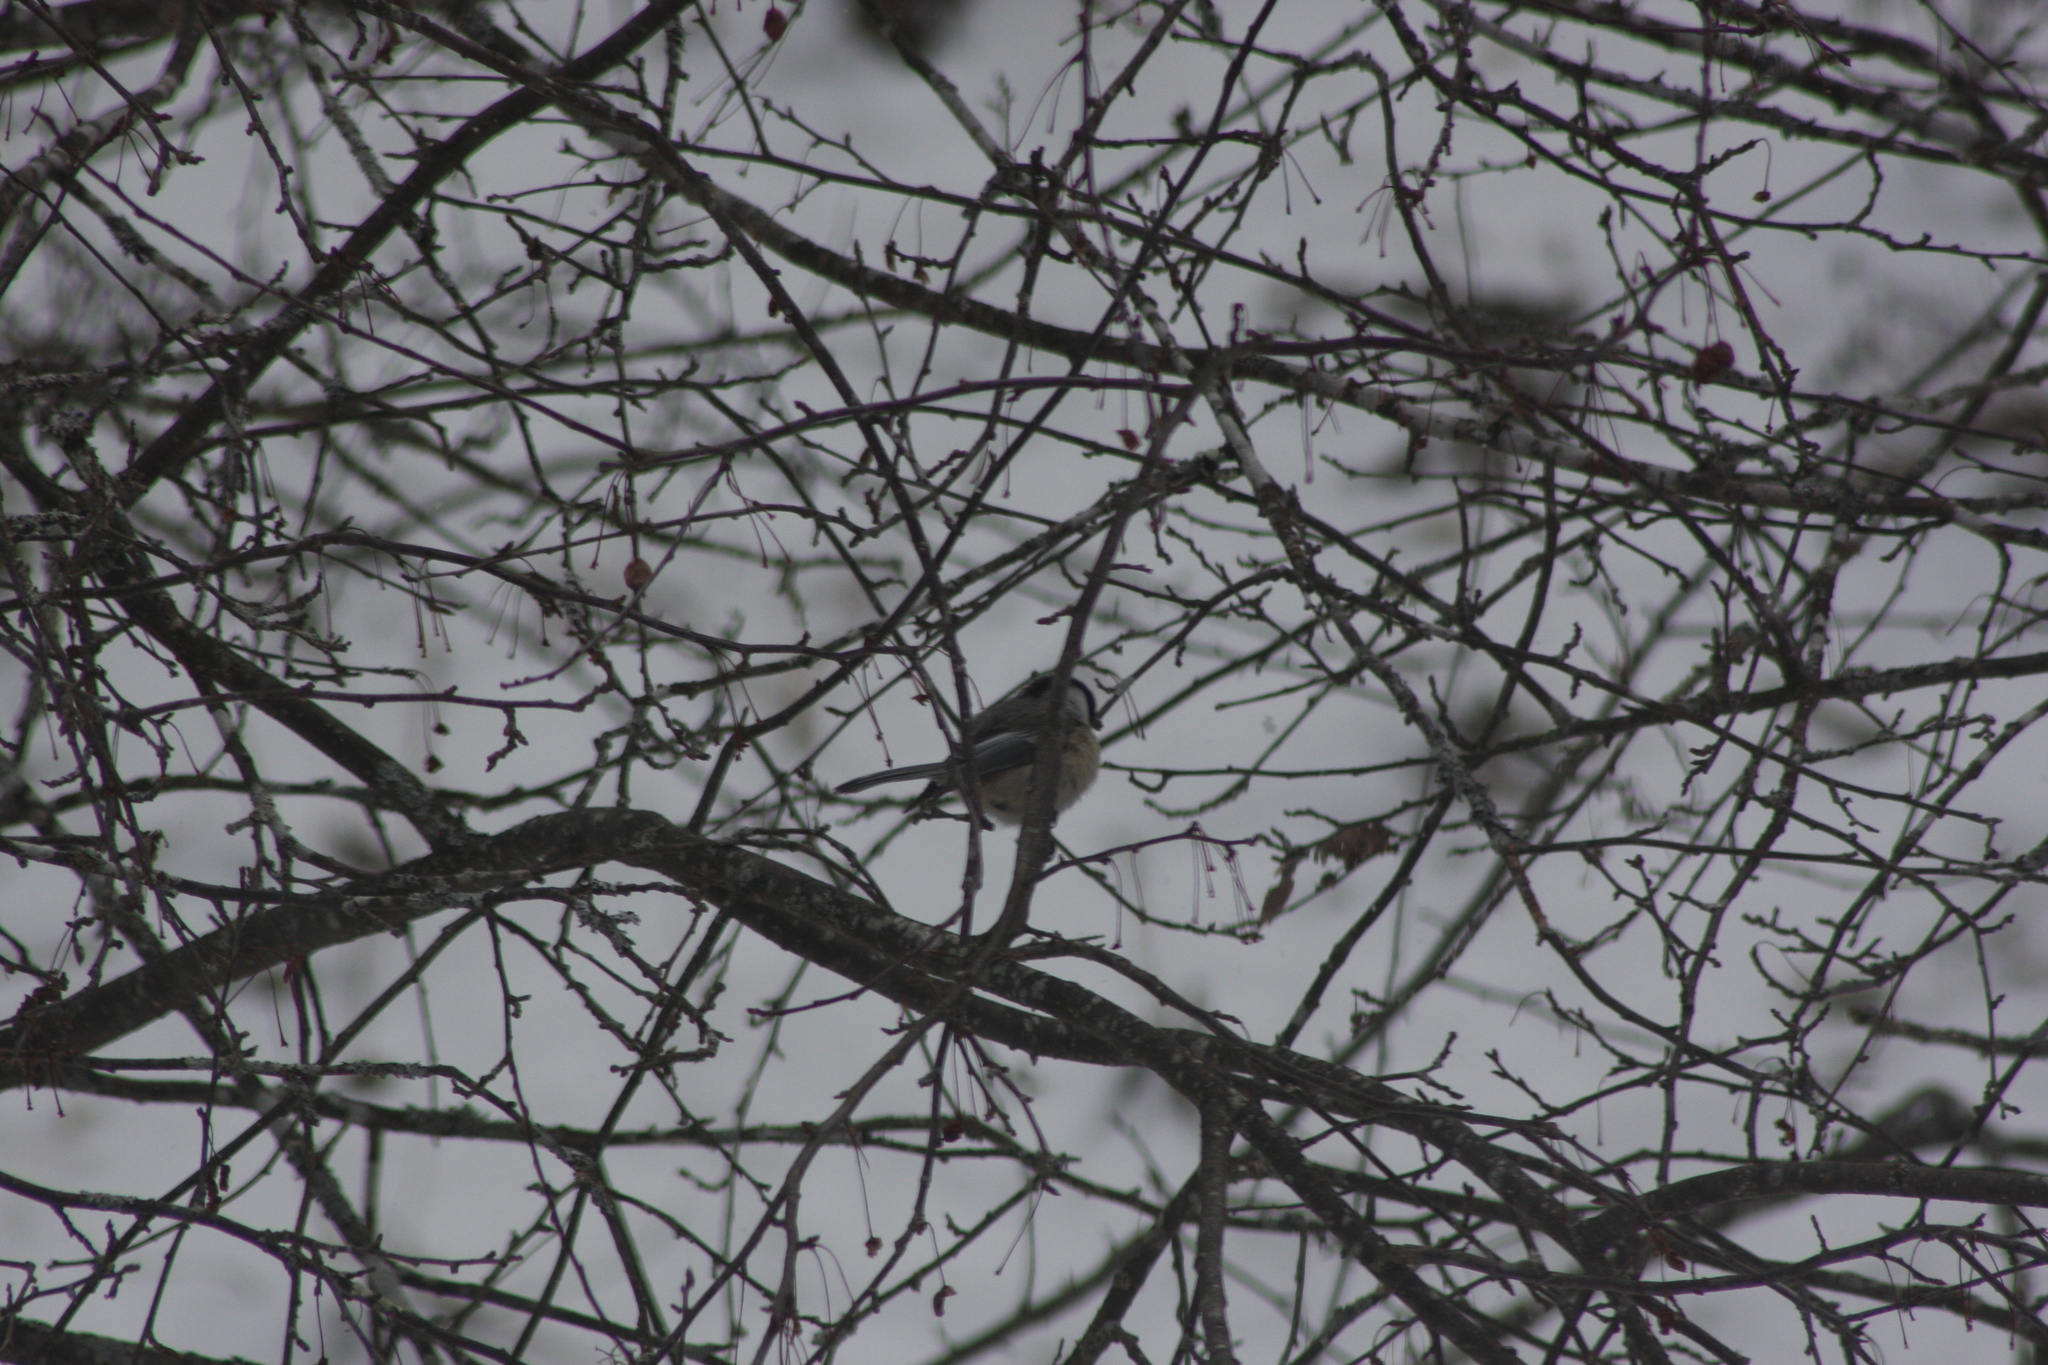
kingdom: Animalia
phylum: Chordata
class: Aves
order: Passeriformes
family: Paridae
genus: Poecile
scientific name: Poecile atricapillus
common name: Black-capped chickadee
